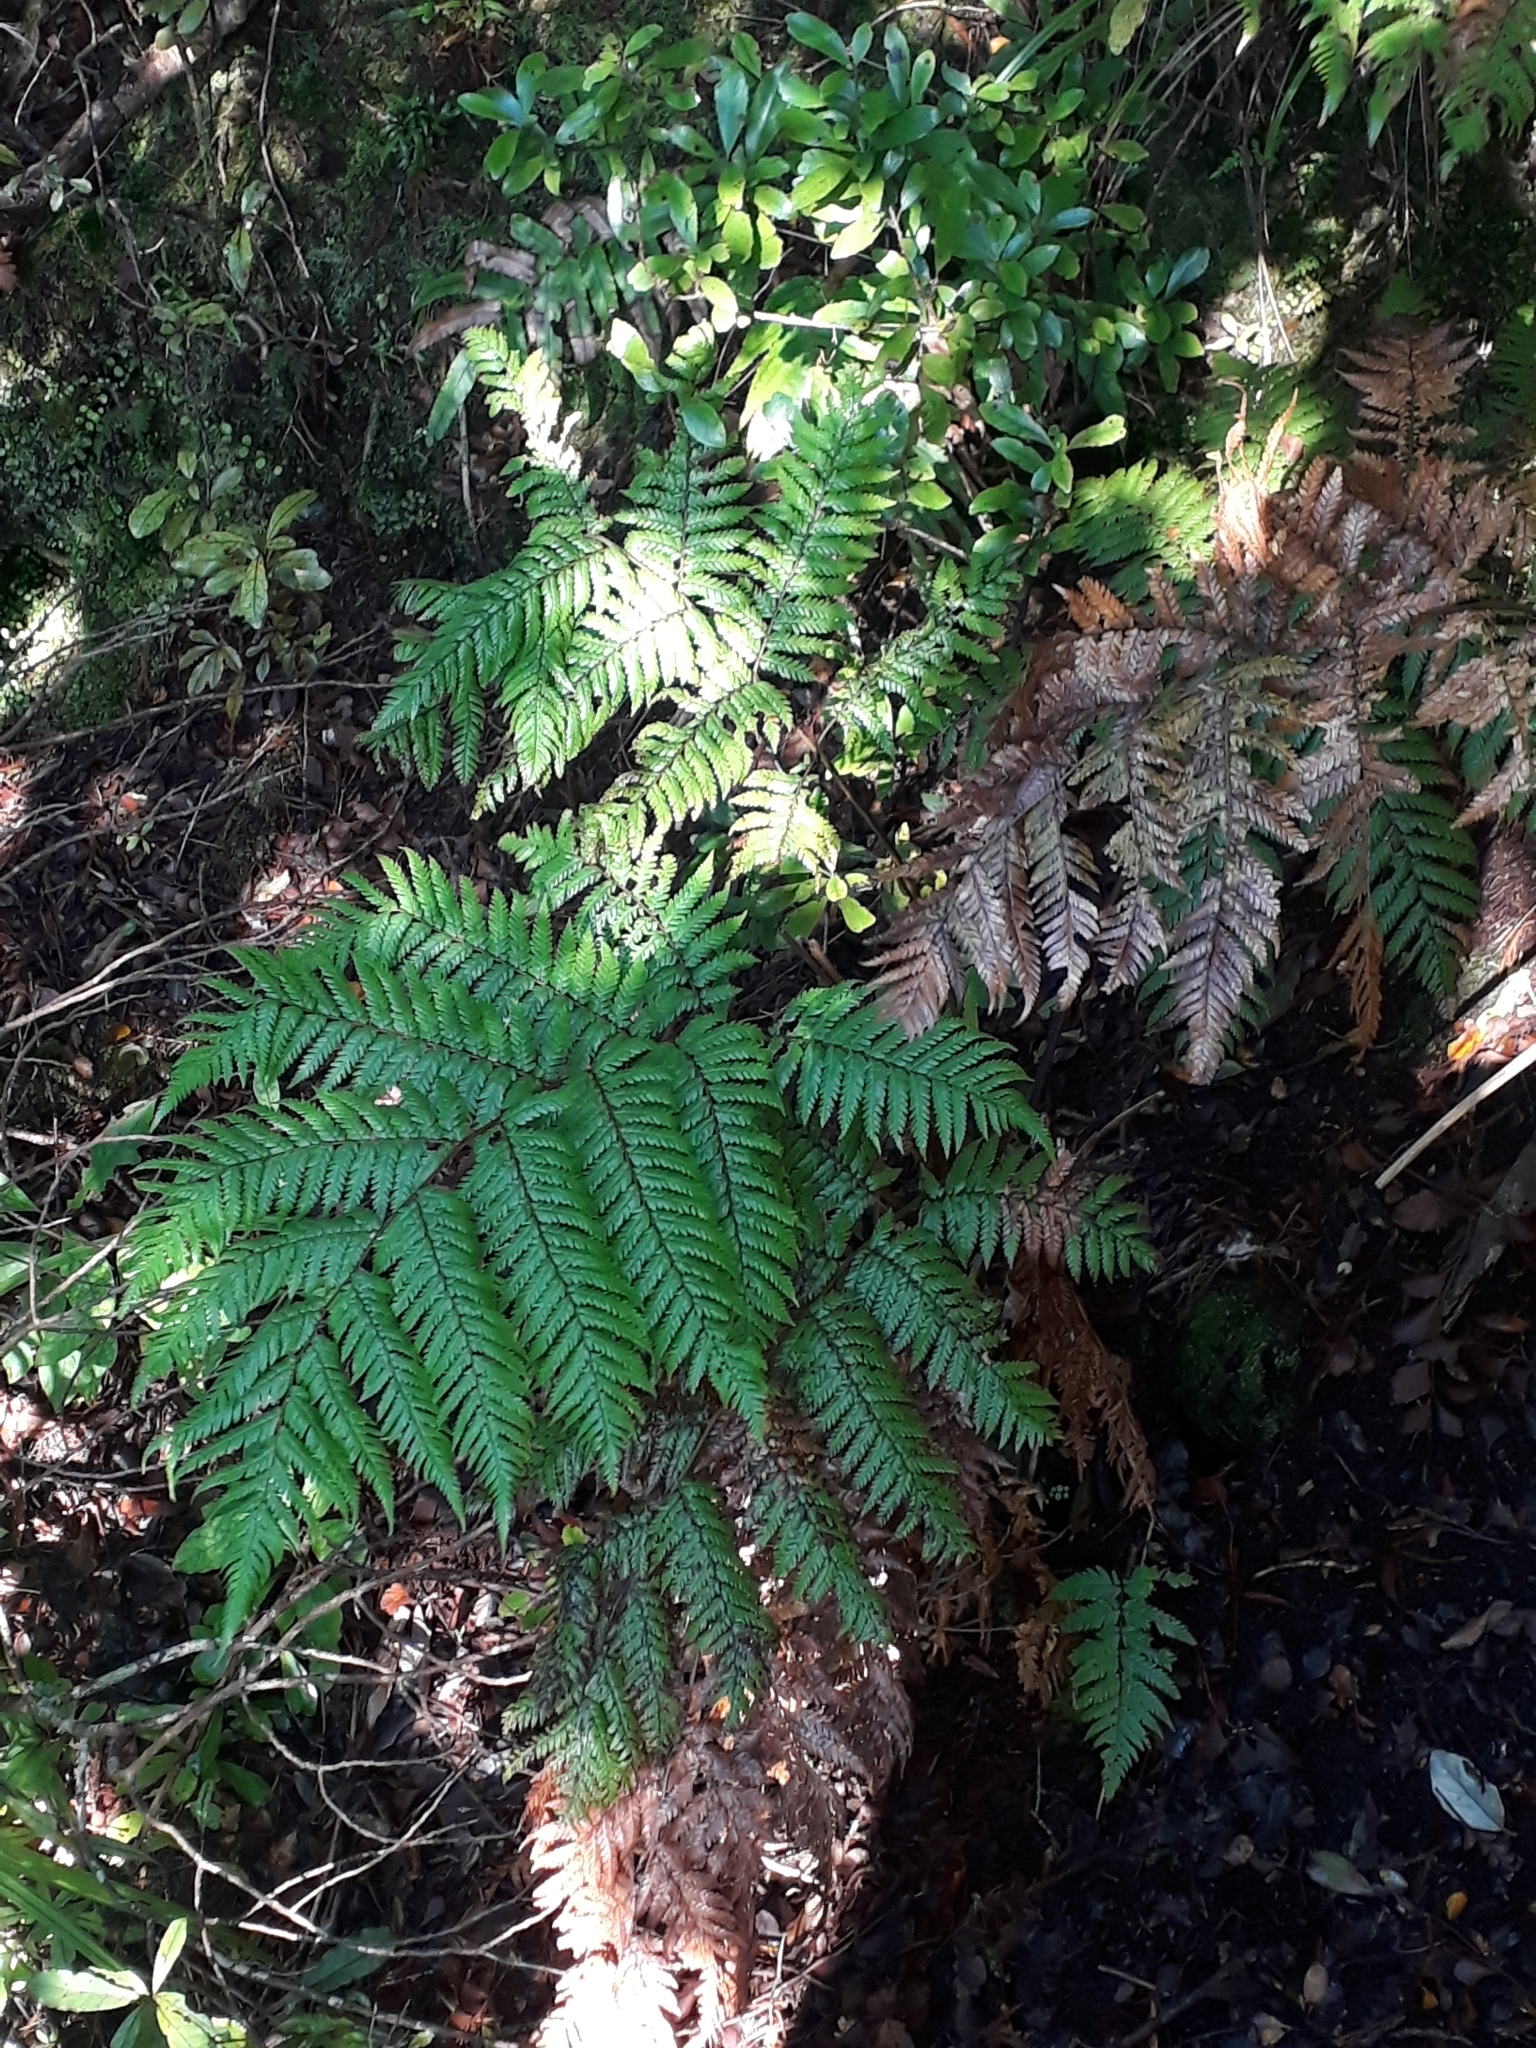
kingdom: Plantae
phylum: Tracheophyta
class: Polypodiopsida
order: Cyatheales
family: Dicksoniaceae
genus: Dicksonia
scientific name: Dicksonia lanata
